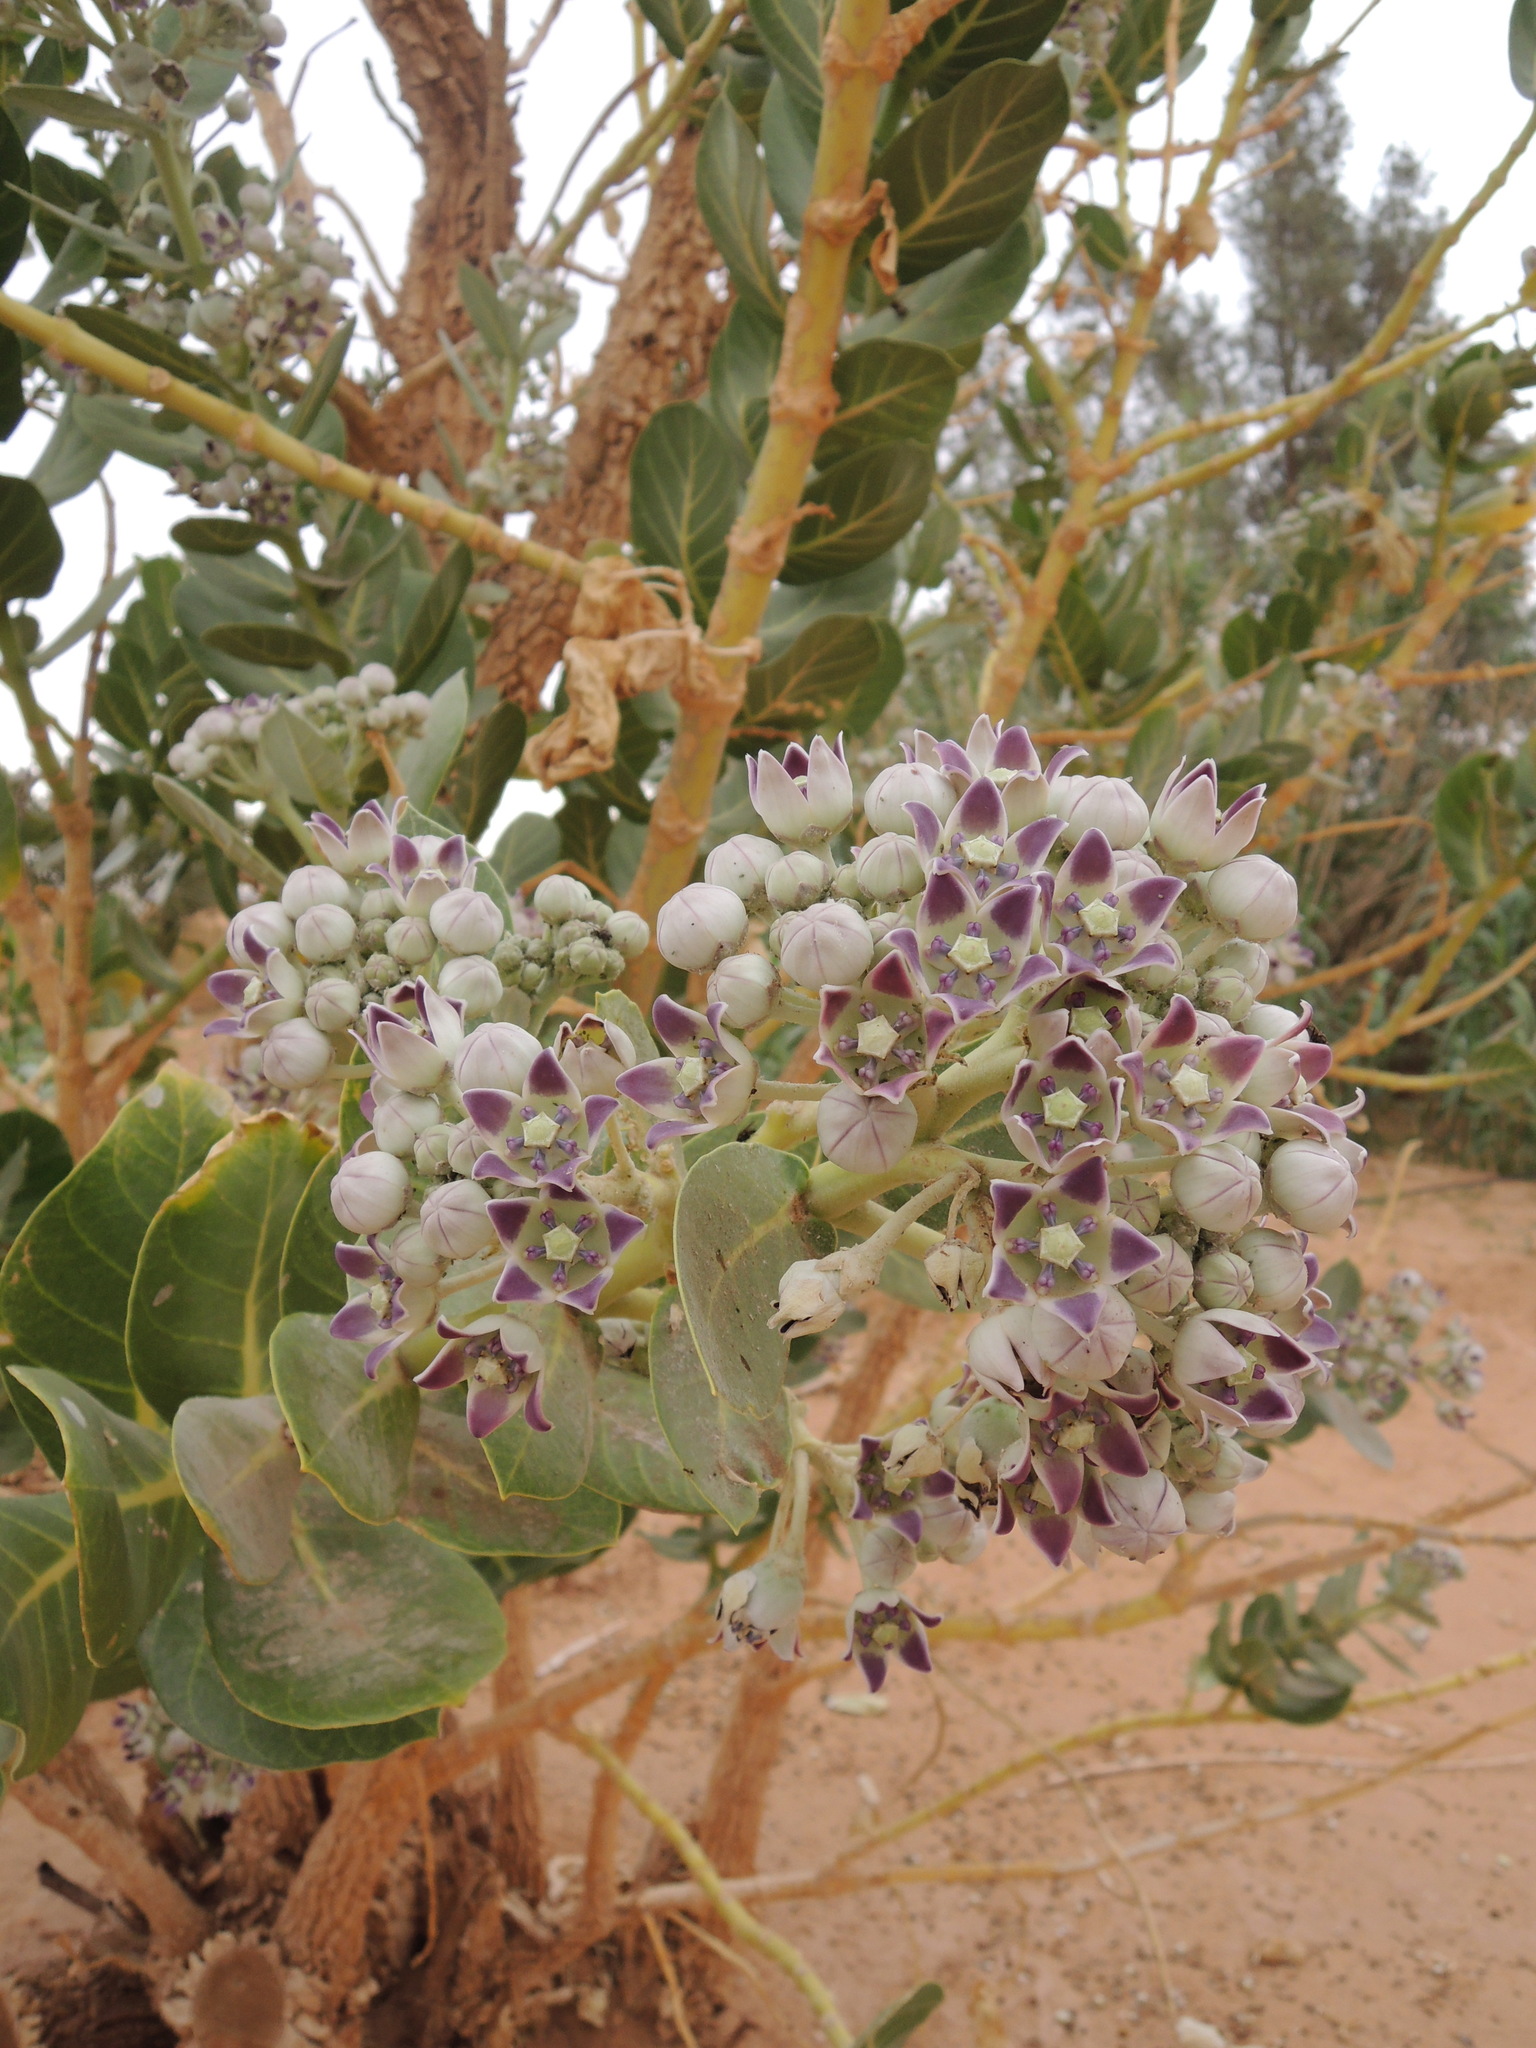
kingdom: Plantae
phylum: Tracheophyta
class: Magnoliopsida
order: Gentianales
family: Apocynaceae
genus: Calotropis
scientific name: Calotropis procera
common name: Roostertree
